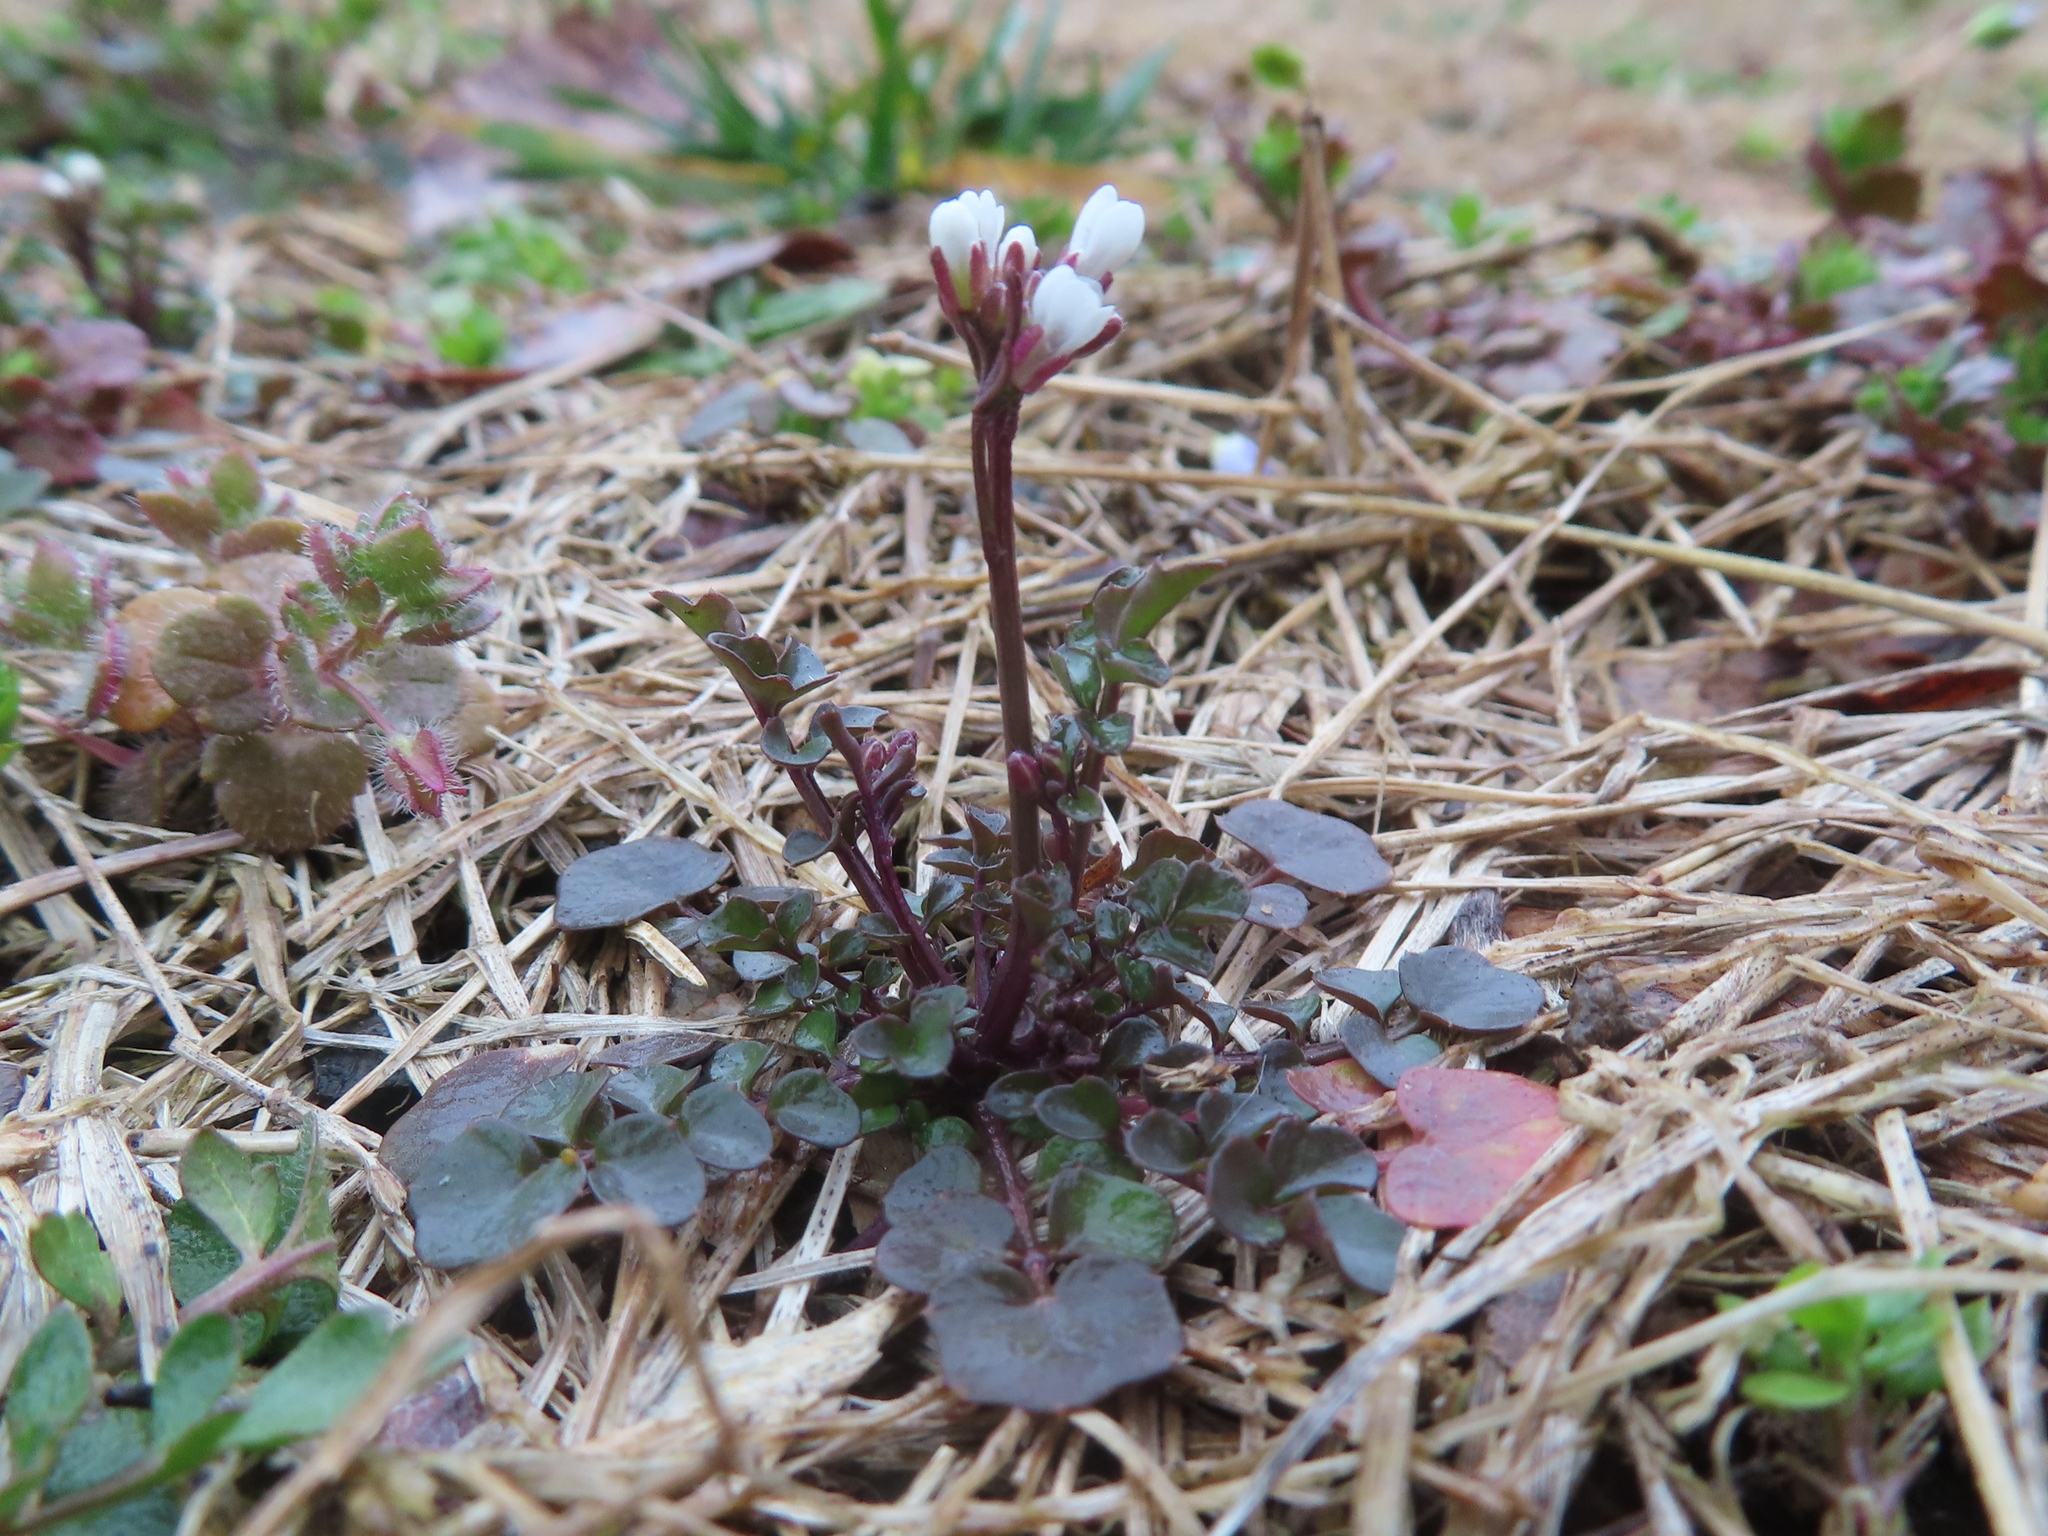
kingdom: Plantae
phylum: Tracheophyta
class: Magnoliopsida
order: Brassicales
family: Brassicaceae
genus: Cardamine
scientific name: Cardamine hirsuta
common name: Hairy bittercress
